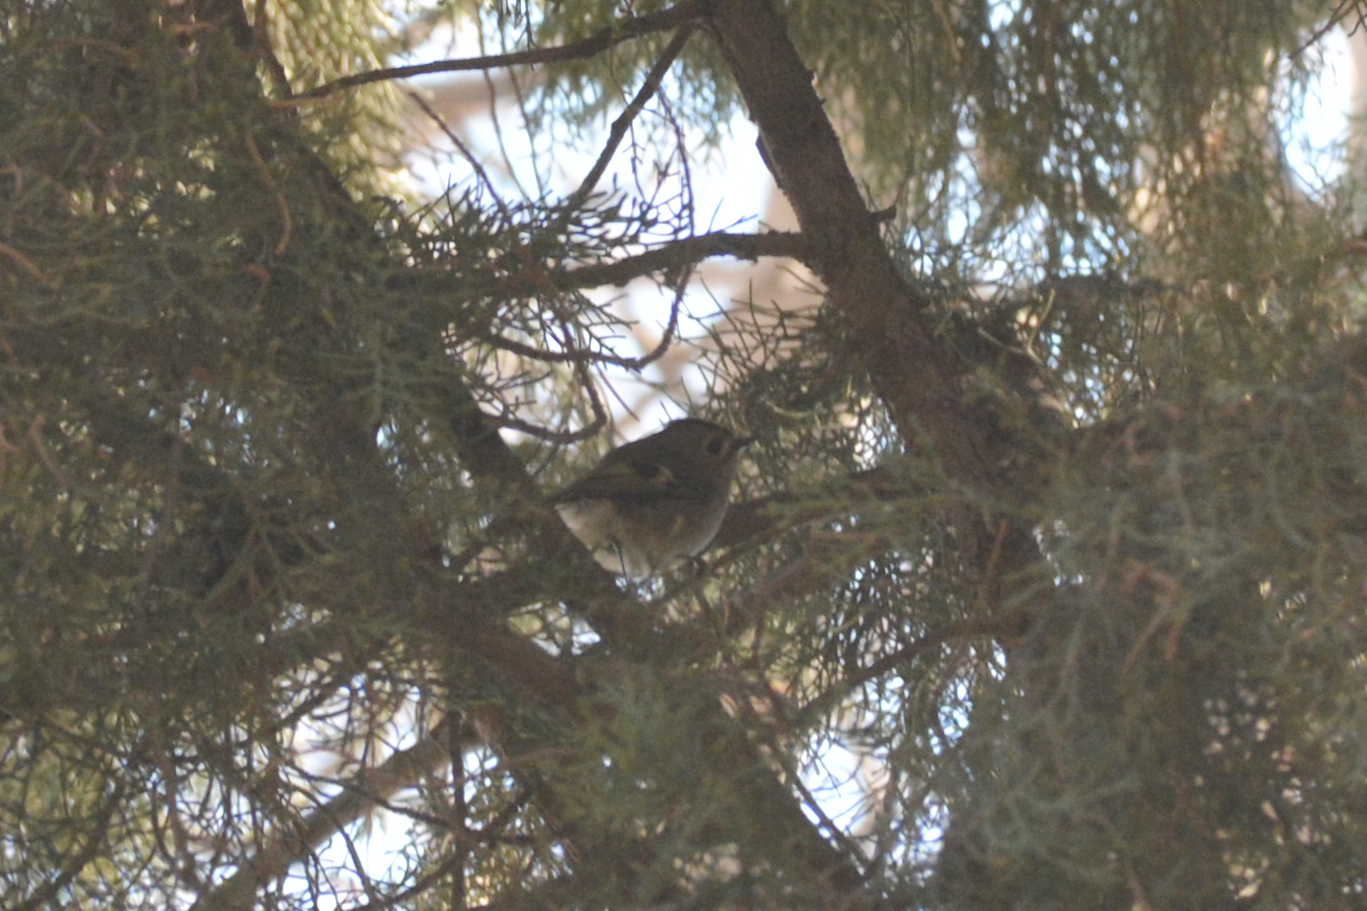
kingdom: Animalia
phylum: Chordata
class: Aves
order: Passeriformes
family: Regulidae
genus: Regulus
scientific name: Regulus regulus
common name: Goldcrest
